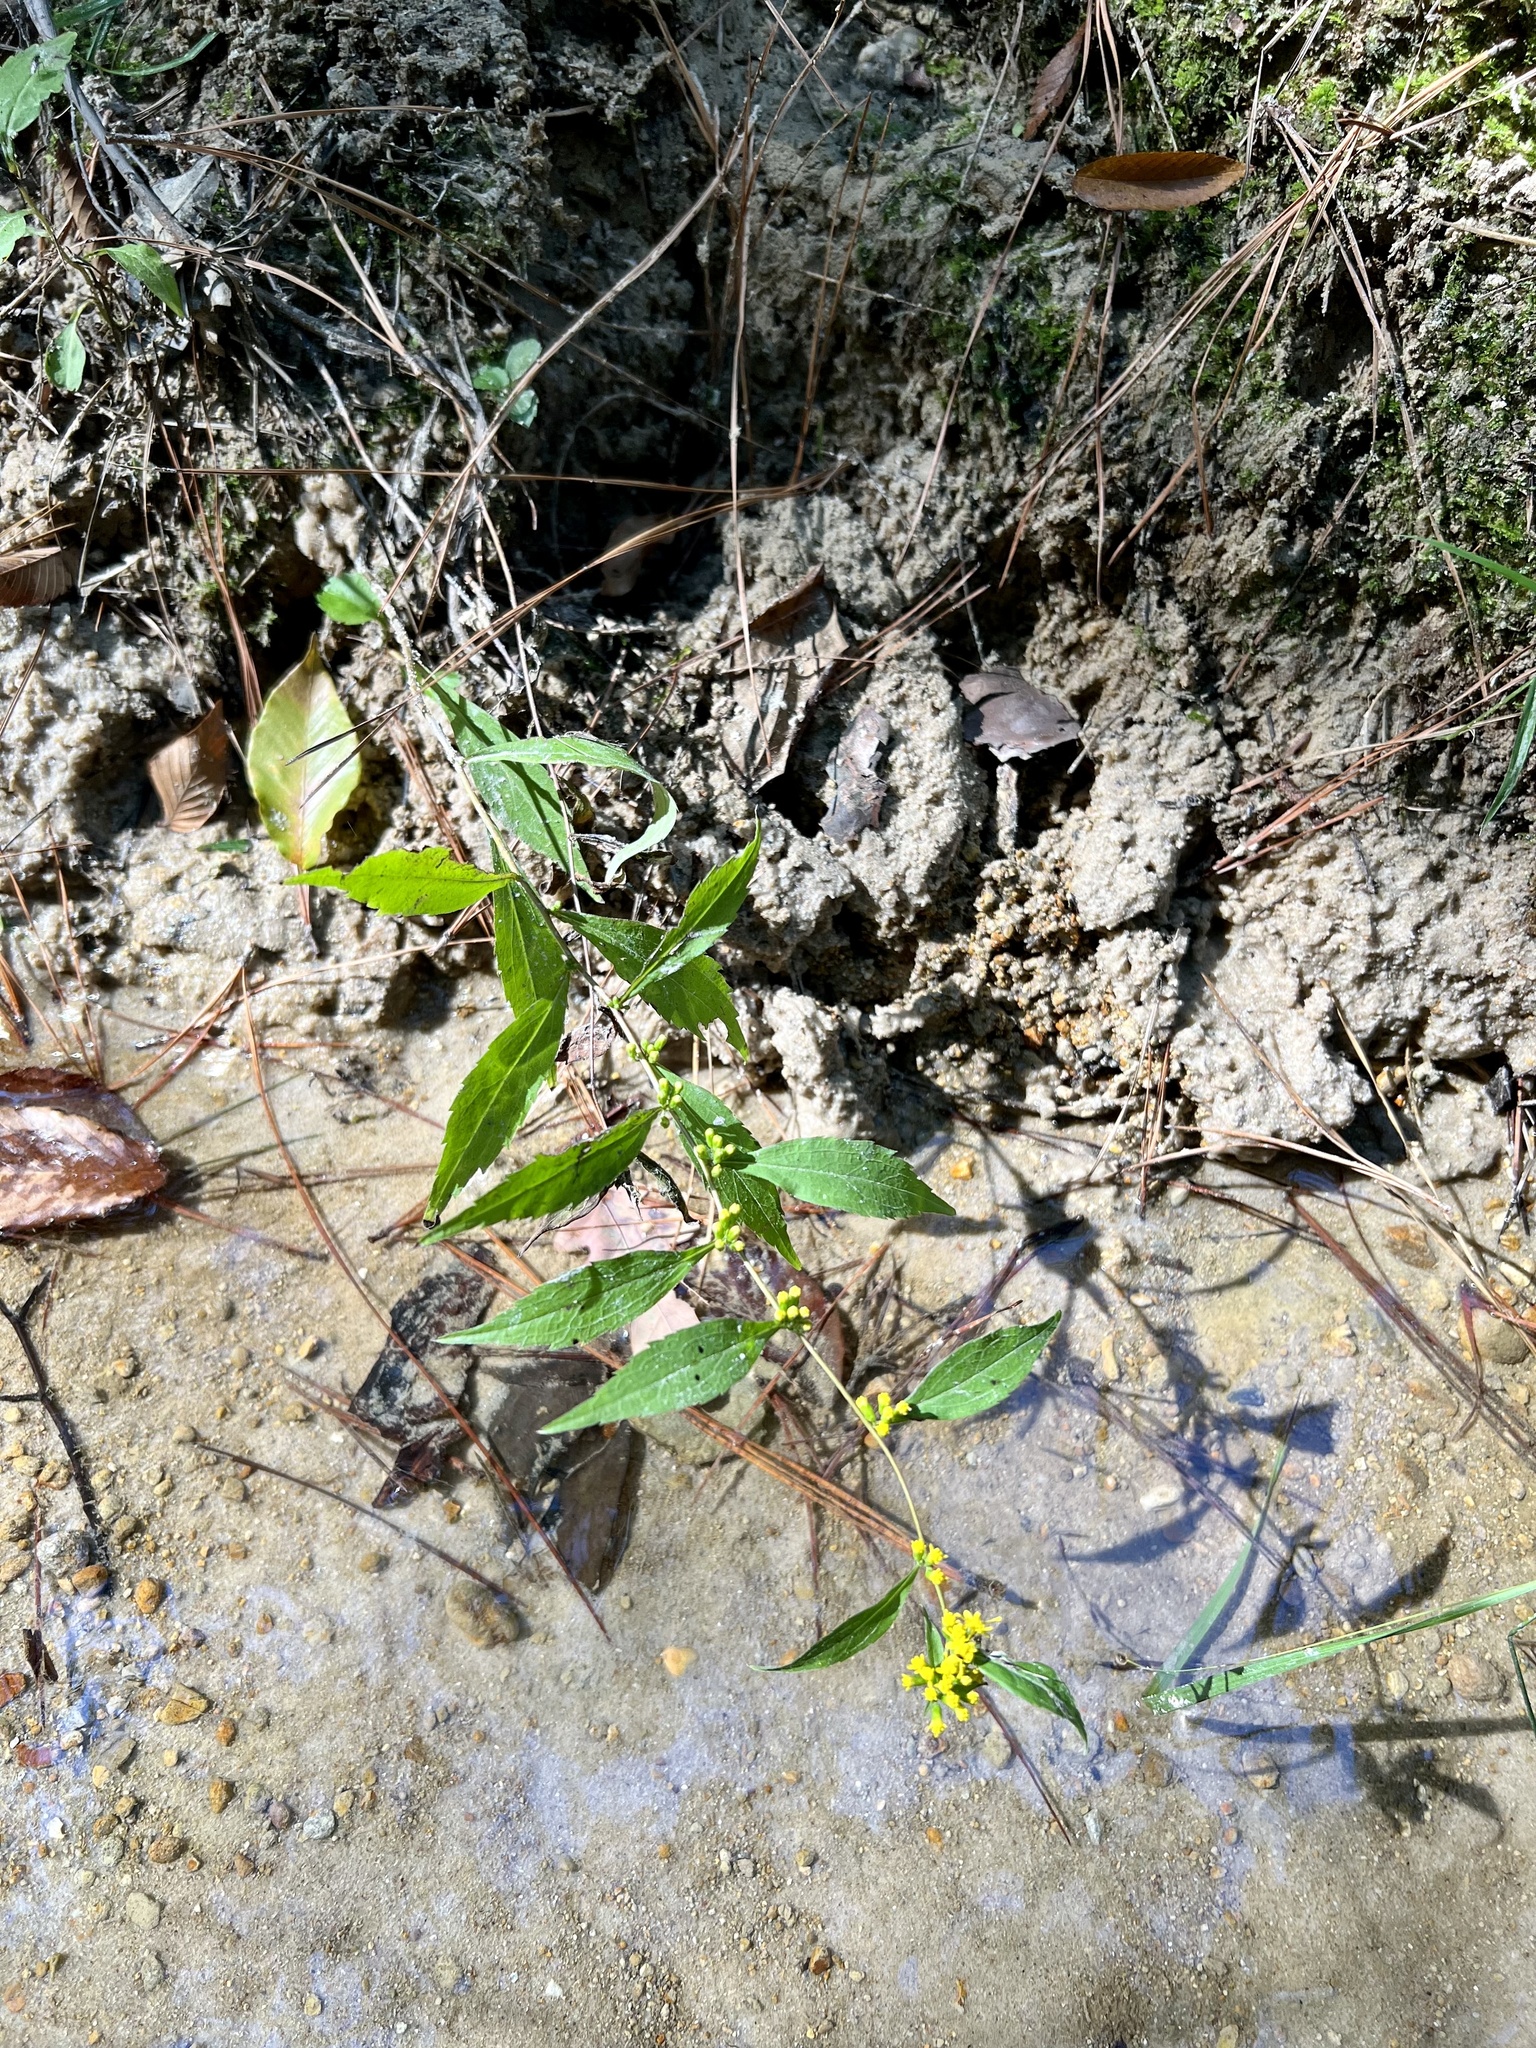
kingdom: Plantae
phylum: Tracheophyta
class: Magnoliopsida
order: Asterales
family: Asteraceae
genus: Solidago
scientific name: Solidago caesia
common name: Woodland goldenrod
